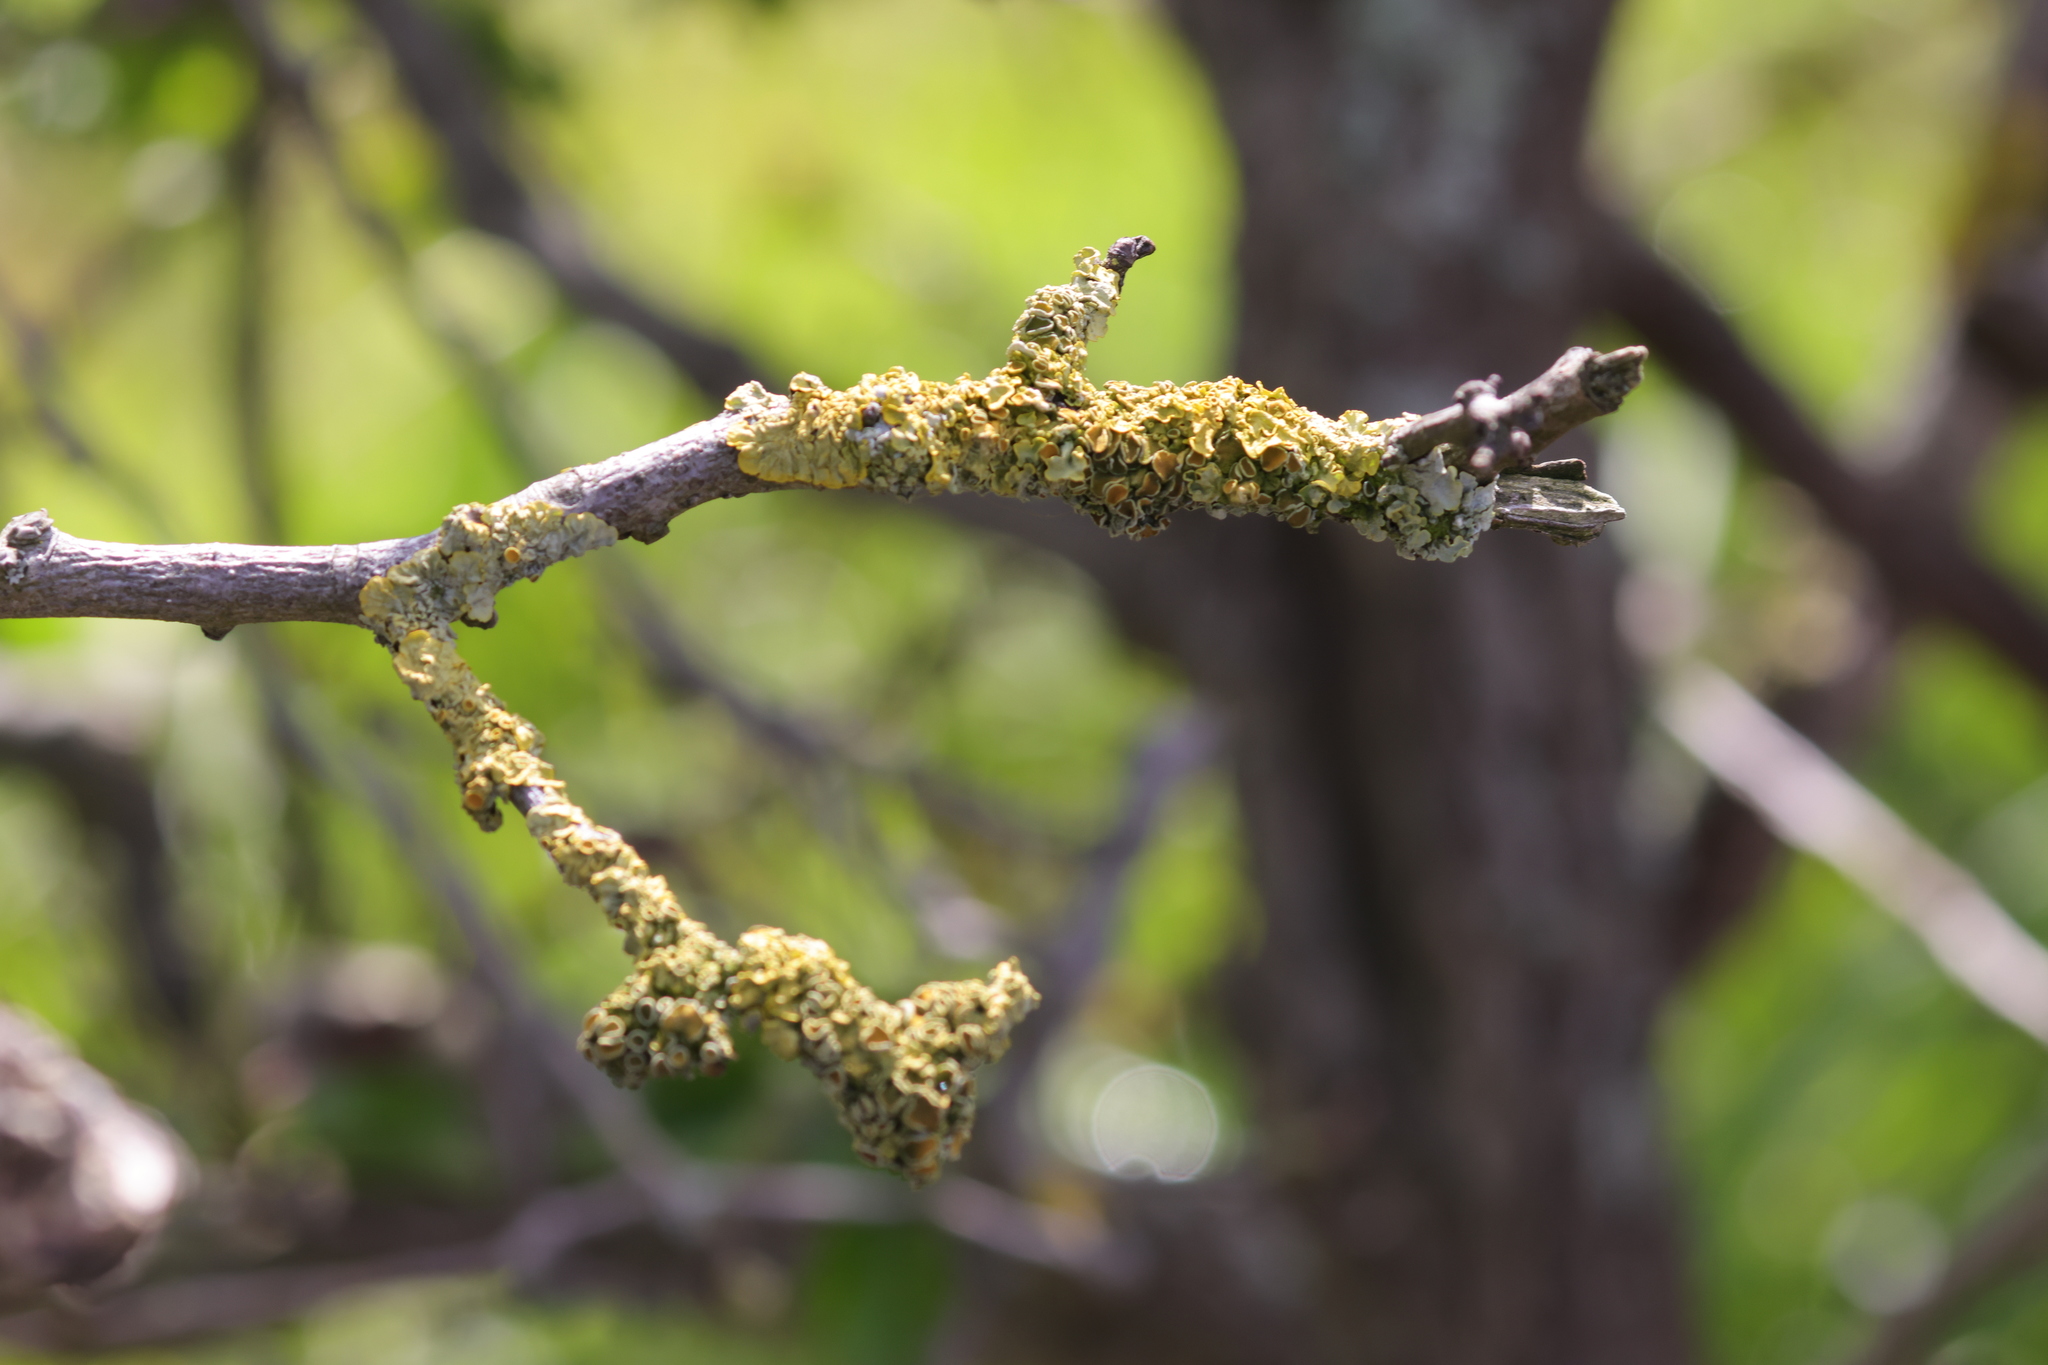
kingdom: Fungi
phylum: Ascomycota
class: Lecanoromycetes
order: Teloschistales
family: Teloschistaceae
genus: Xanthoria
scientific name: Xanthoria parietina
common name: Common orange lichen
